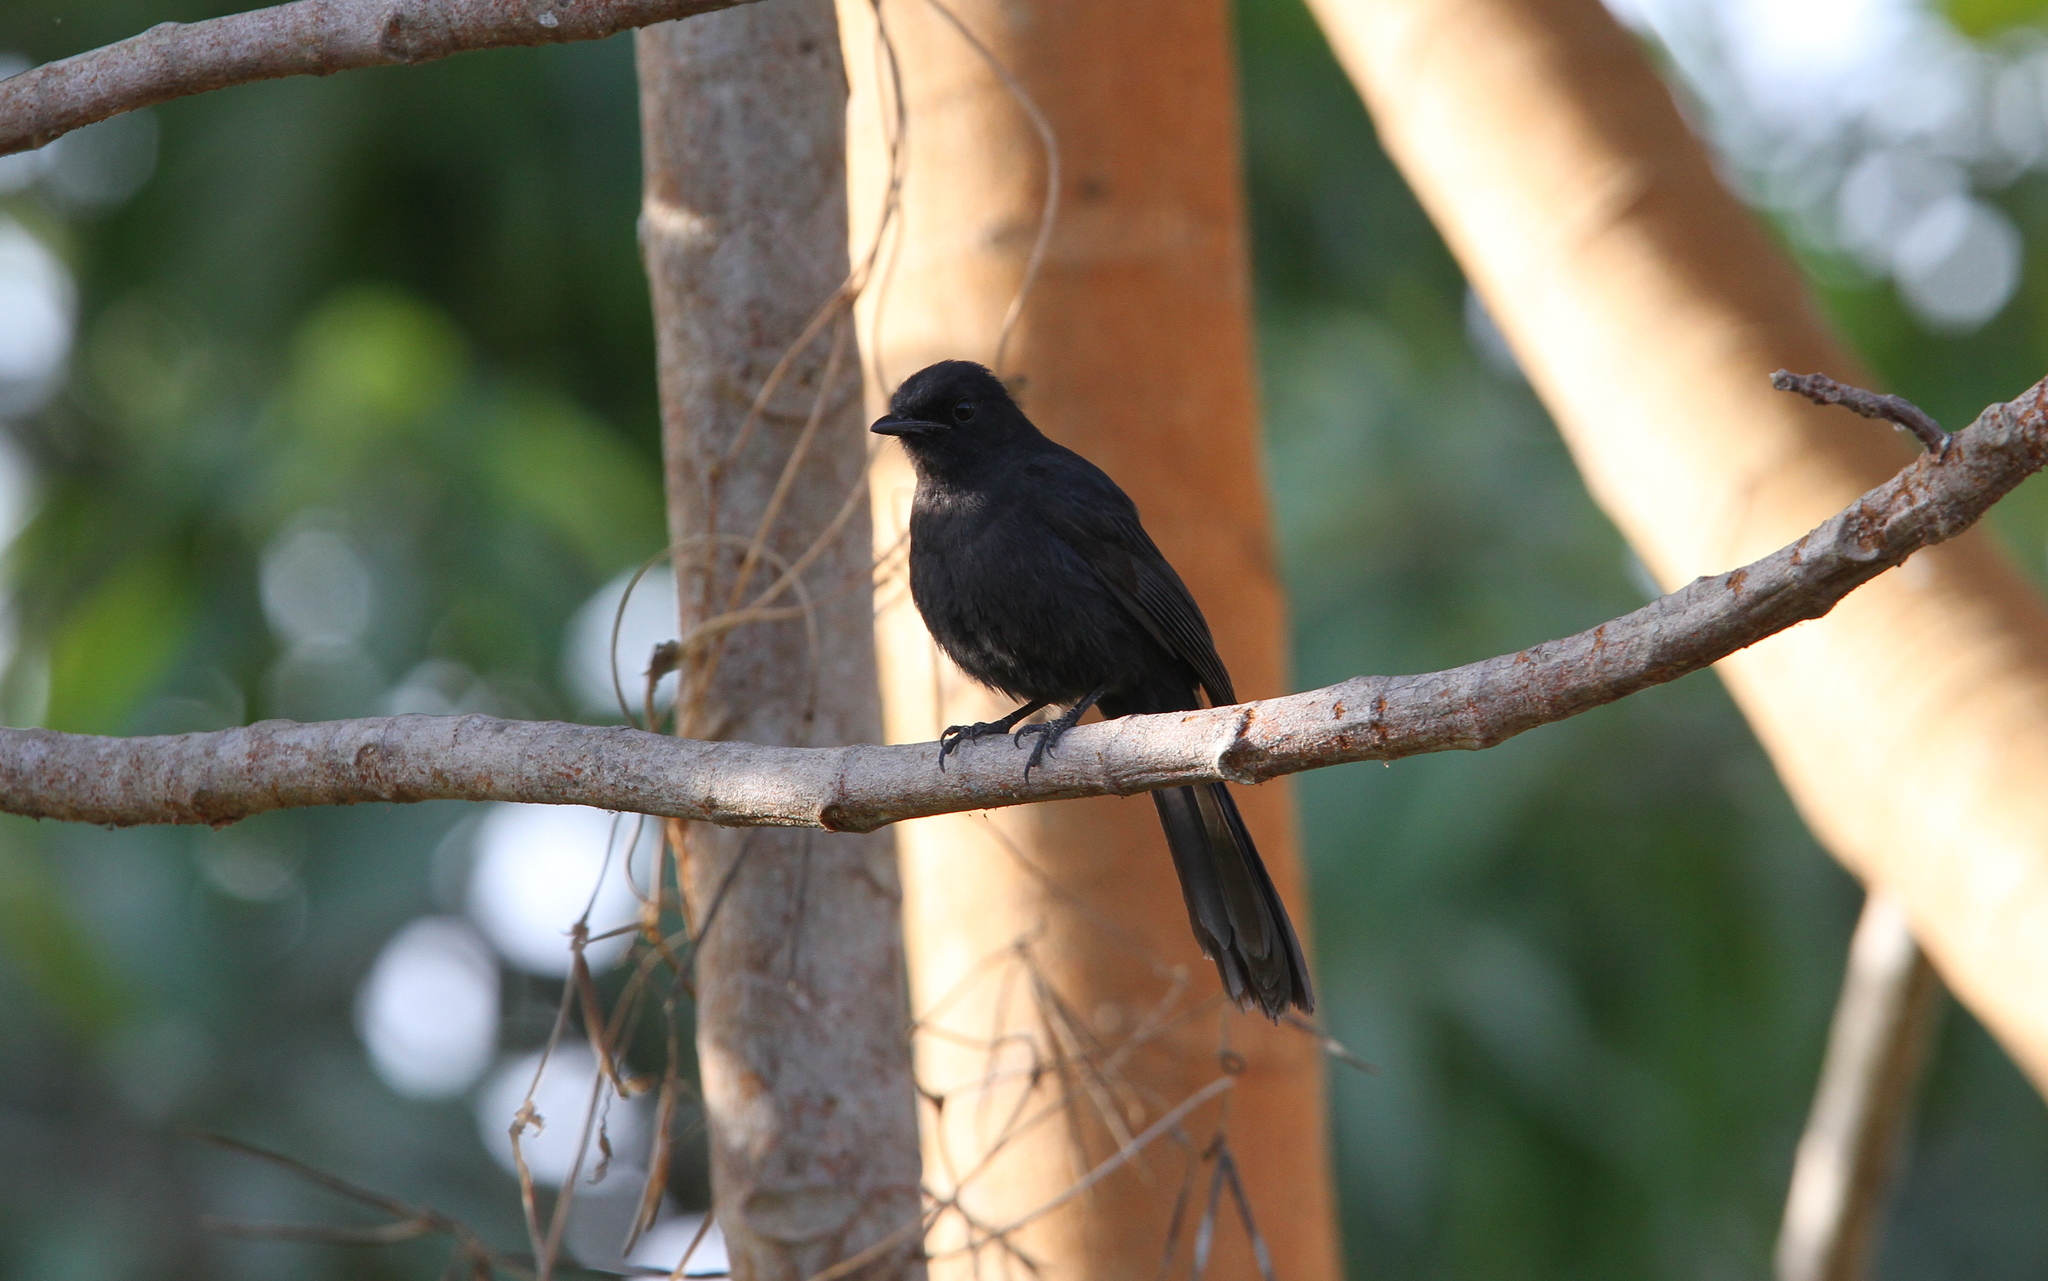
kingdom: Animalia
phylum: Chordata
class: Aves
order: Passeriformes
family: Muscicapidae
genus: Melaenornis
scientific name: Melaenornis edolioides
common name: Northern black flycatcher
